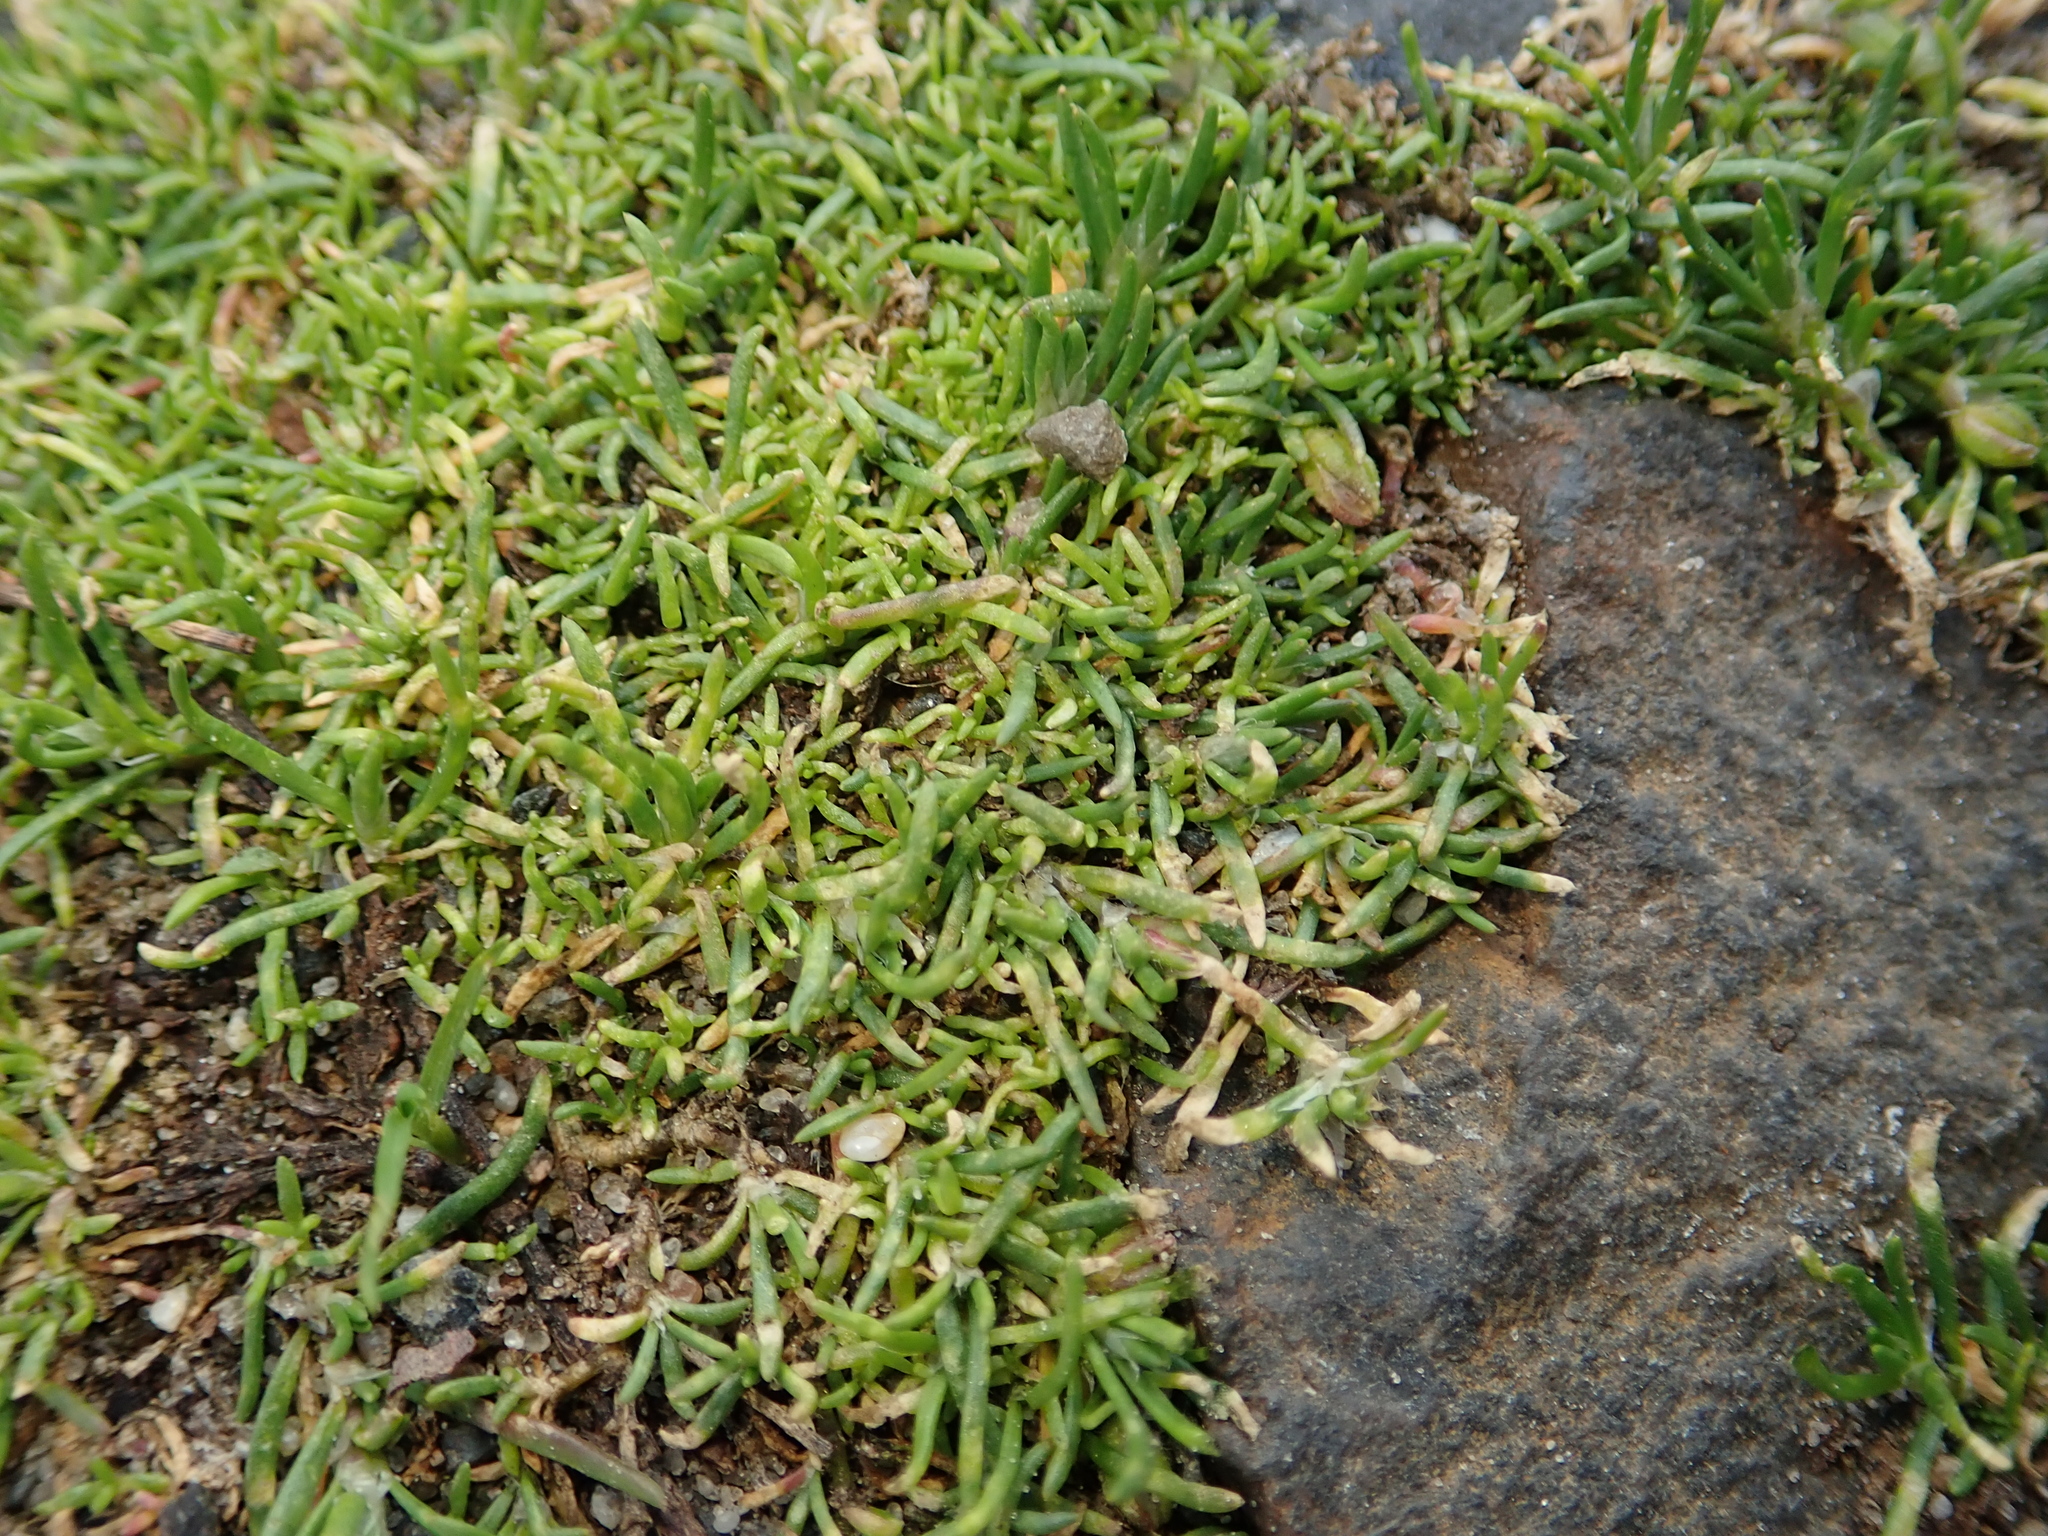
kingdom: Plantae
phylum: Tracheophyta
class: Magnoliopsida
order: Caryophyllales
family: Caryophyllaceae
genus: Sagina
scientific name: Sagina procumbens
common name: Procumbent pearlwort
